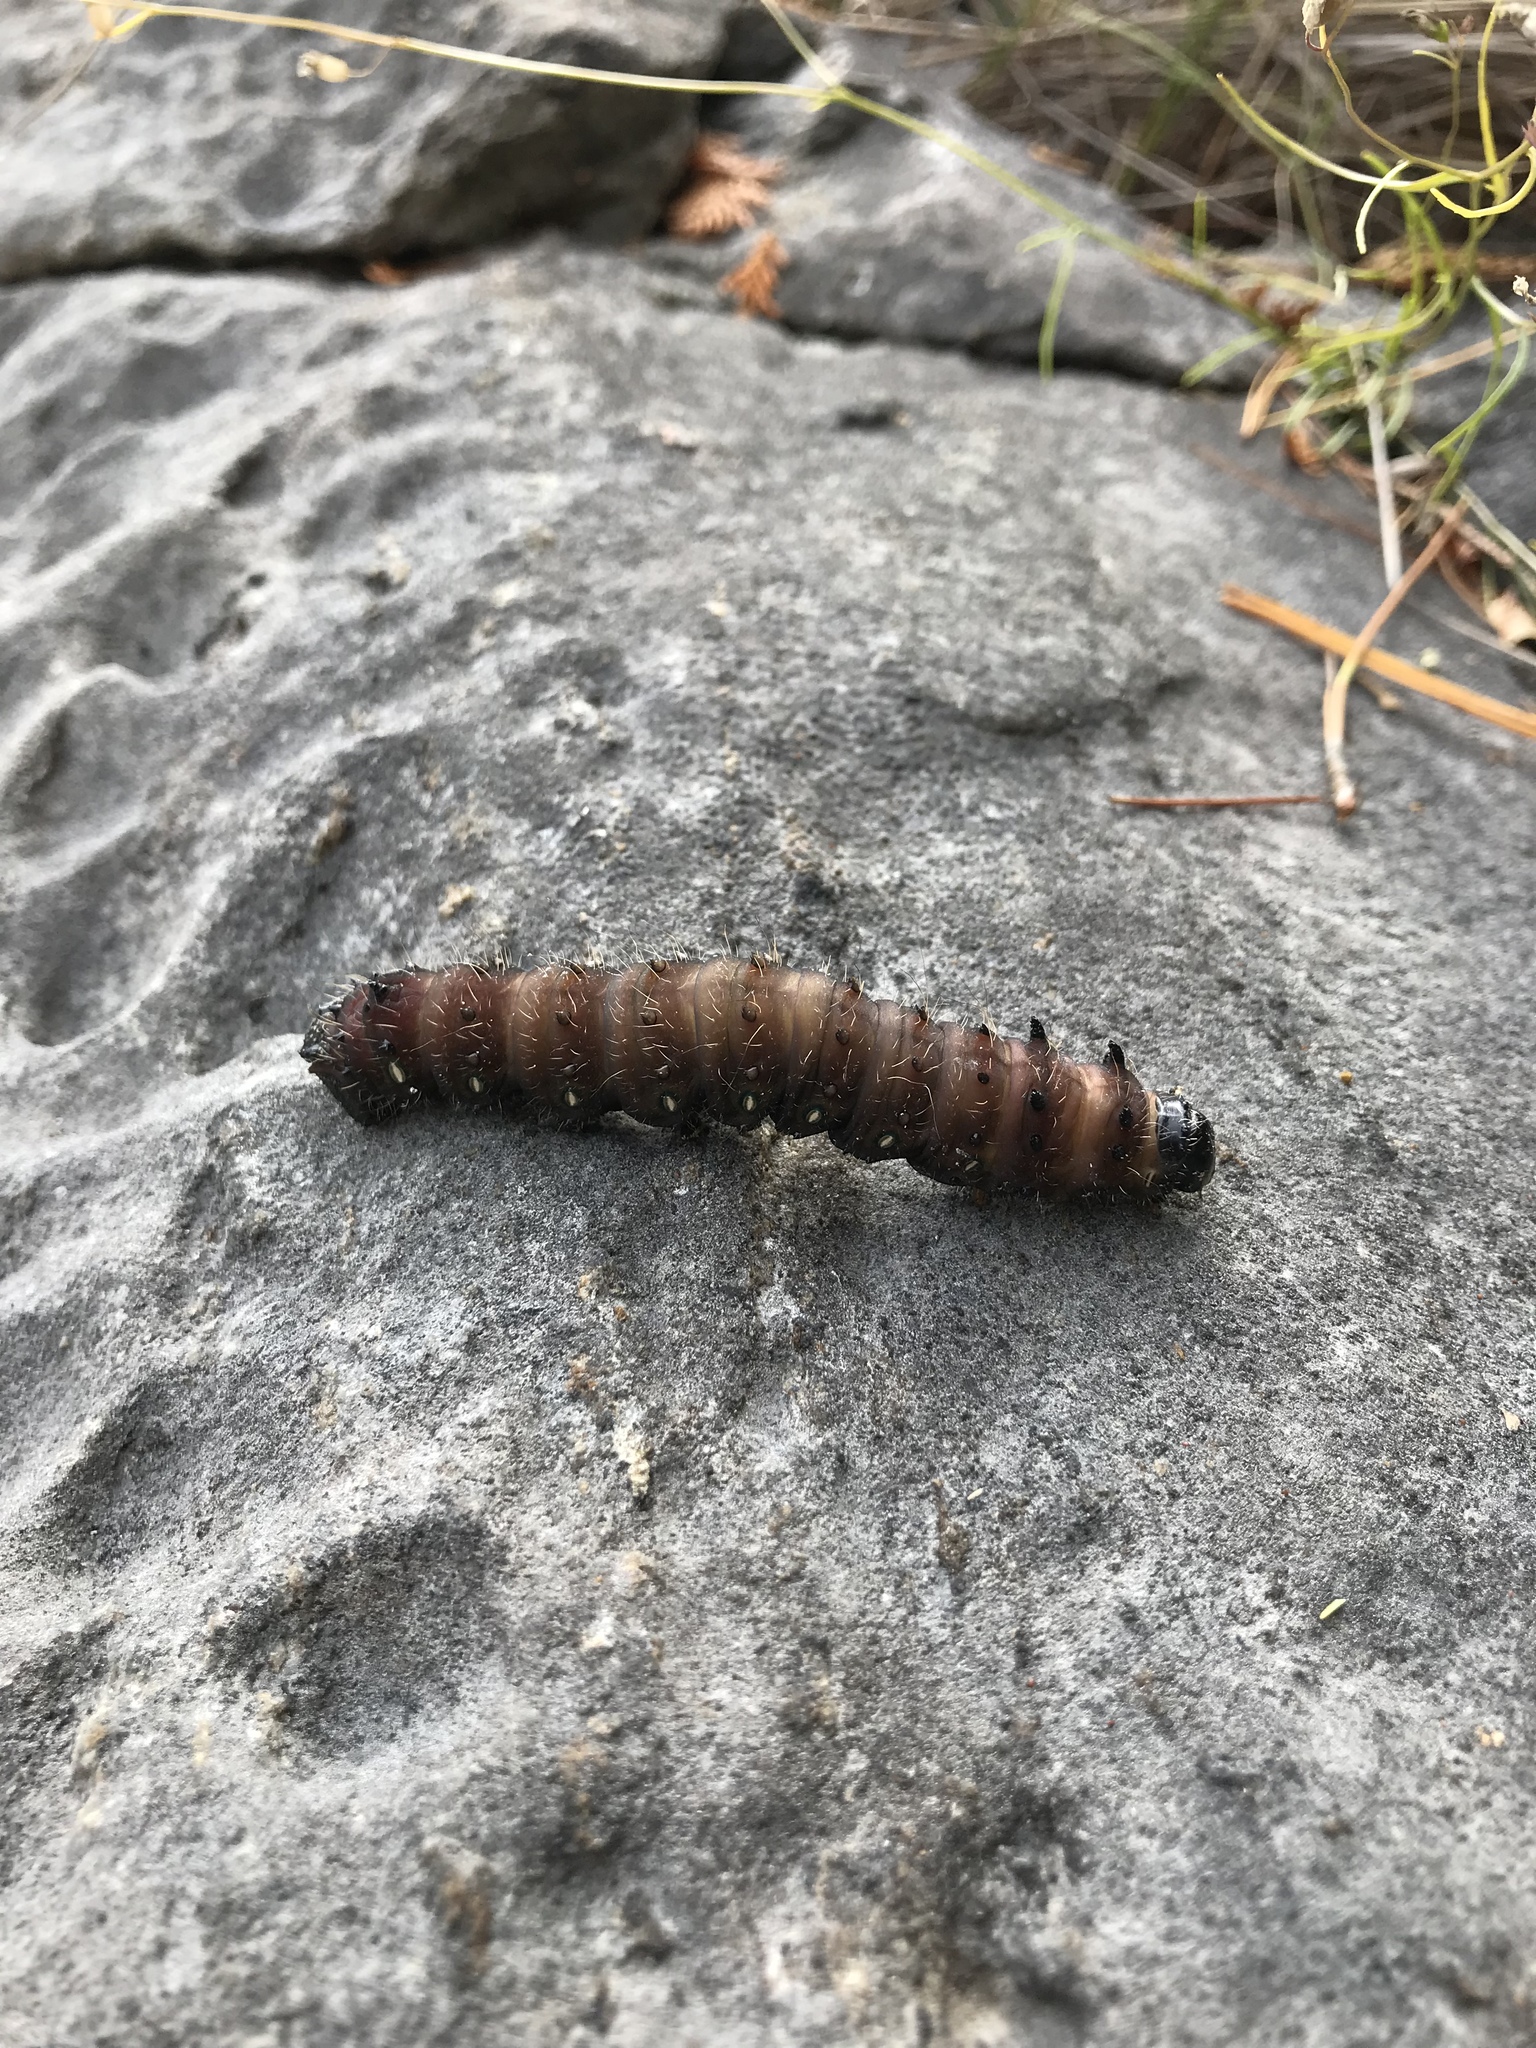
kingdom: Animalia
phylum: Arthropoda
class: Insecta
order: Lepidoptera
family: Saturniidae
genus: Eacles
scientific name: Eacles
